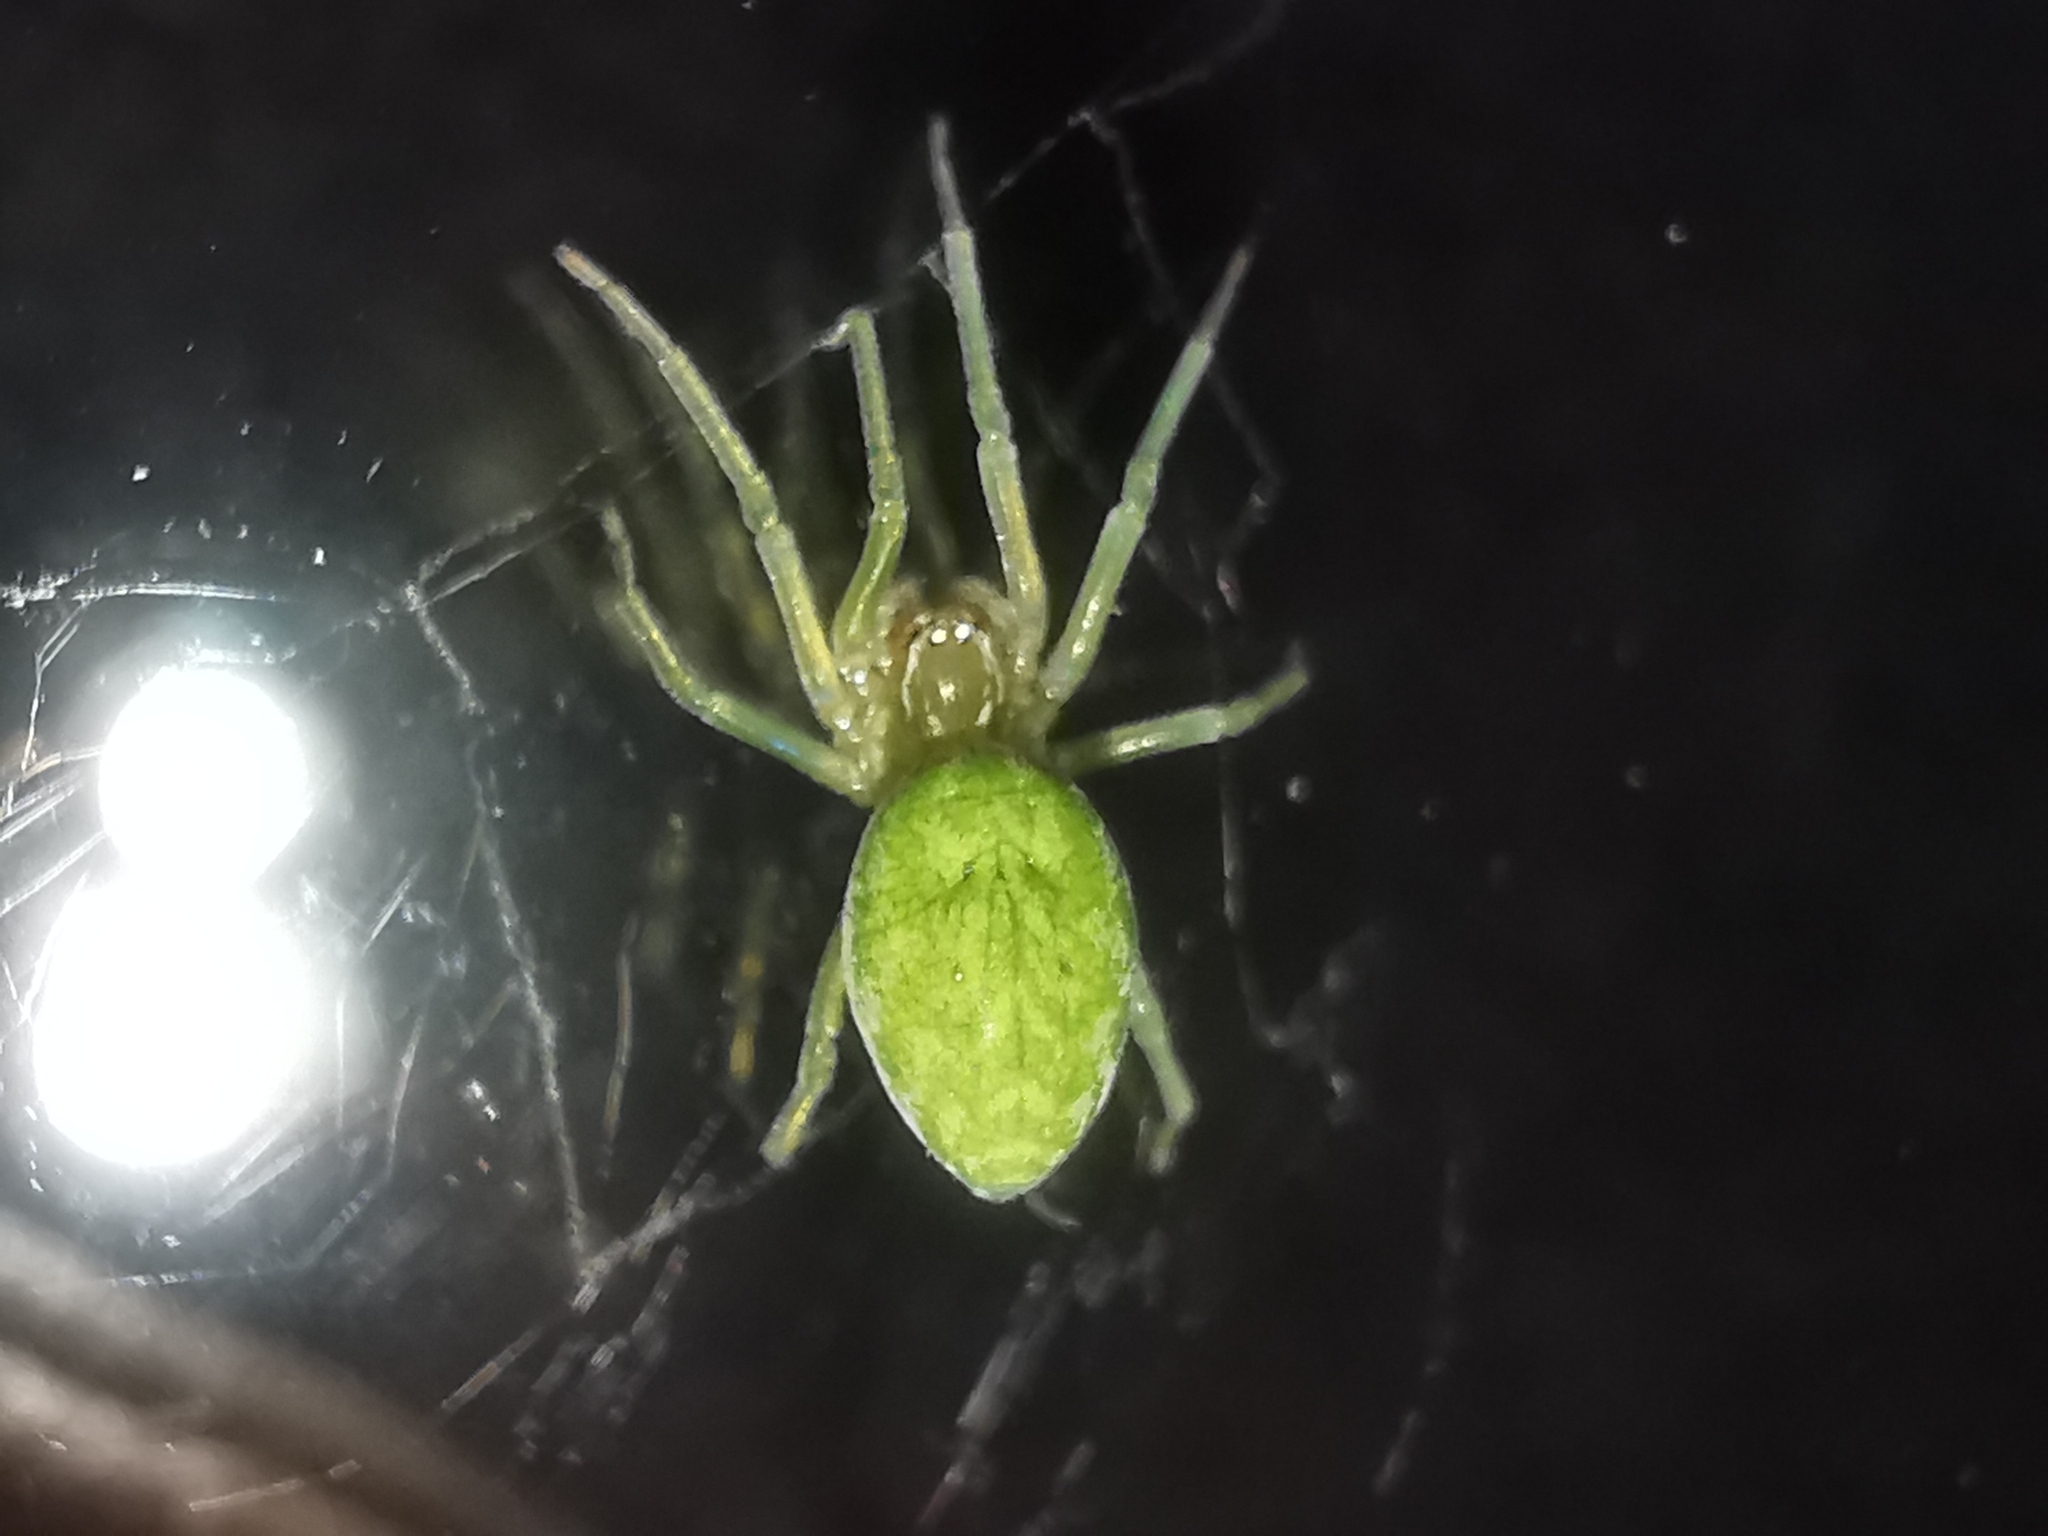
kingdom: Animalia
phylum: Arthropoda
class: Arachnida
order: Araneae
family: Dictynidae
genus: Nigma
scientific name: Nigma walckenaeri
